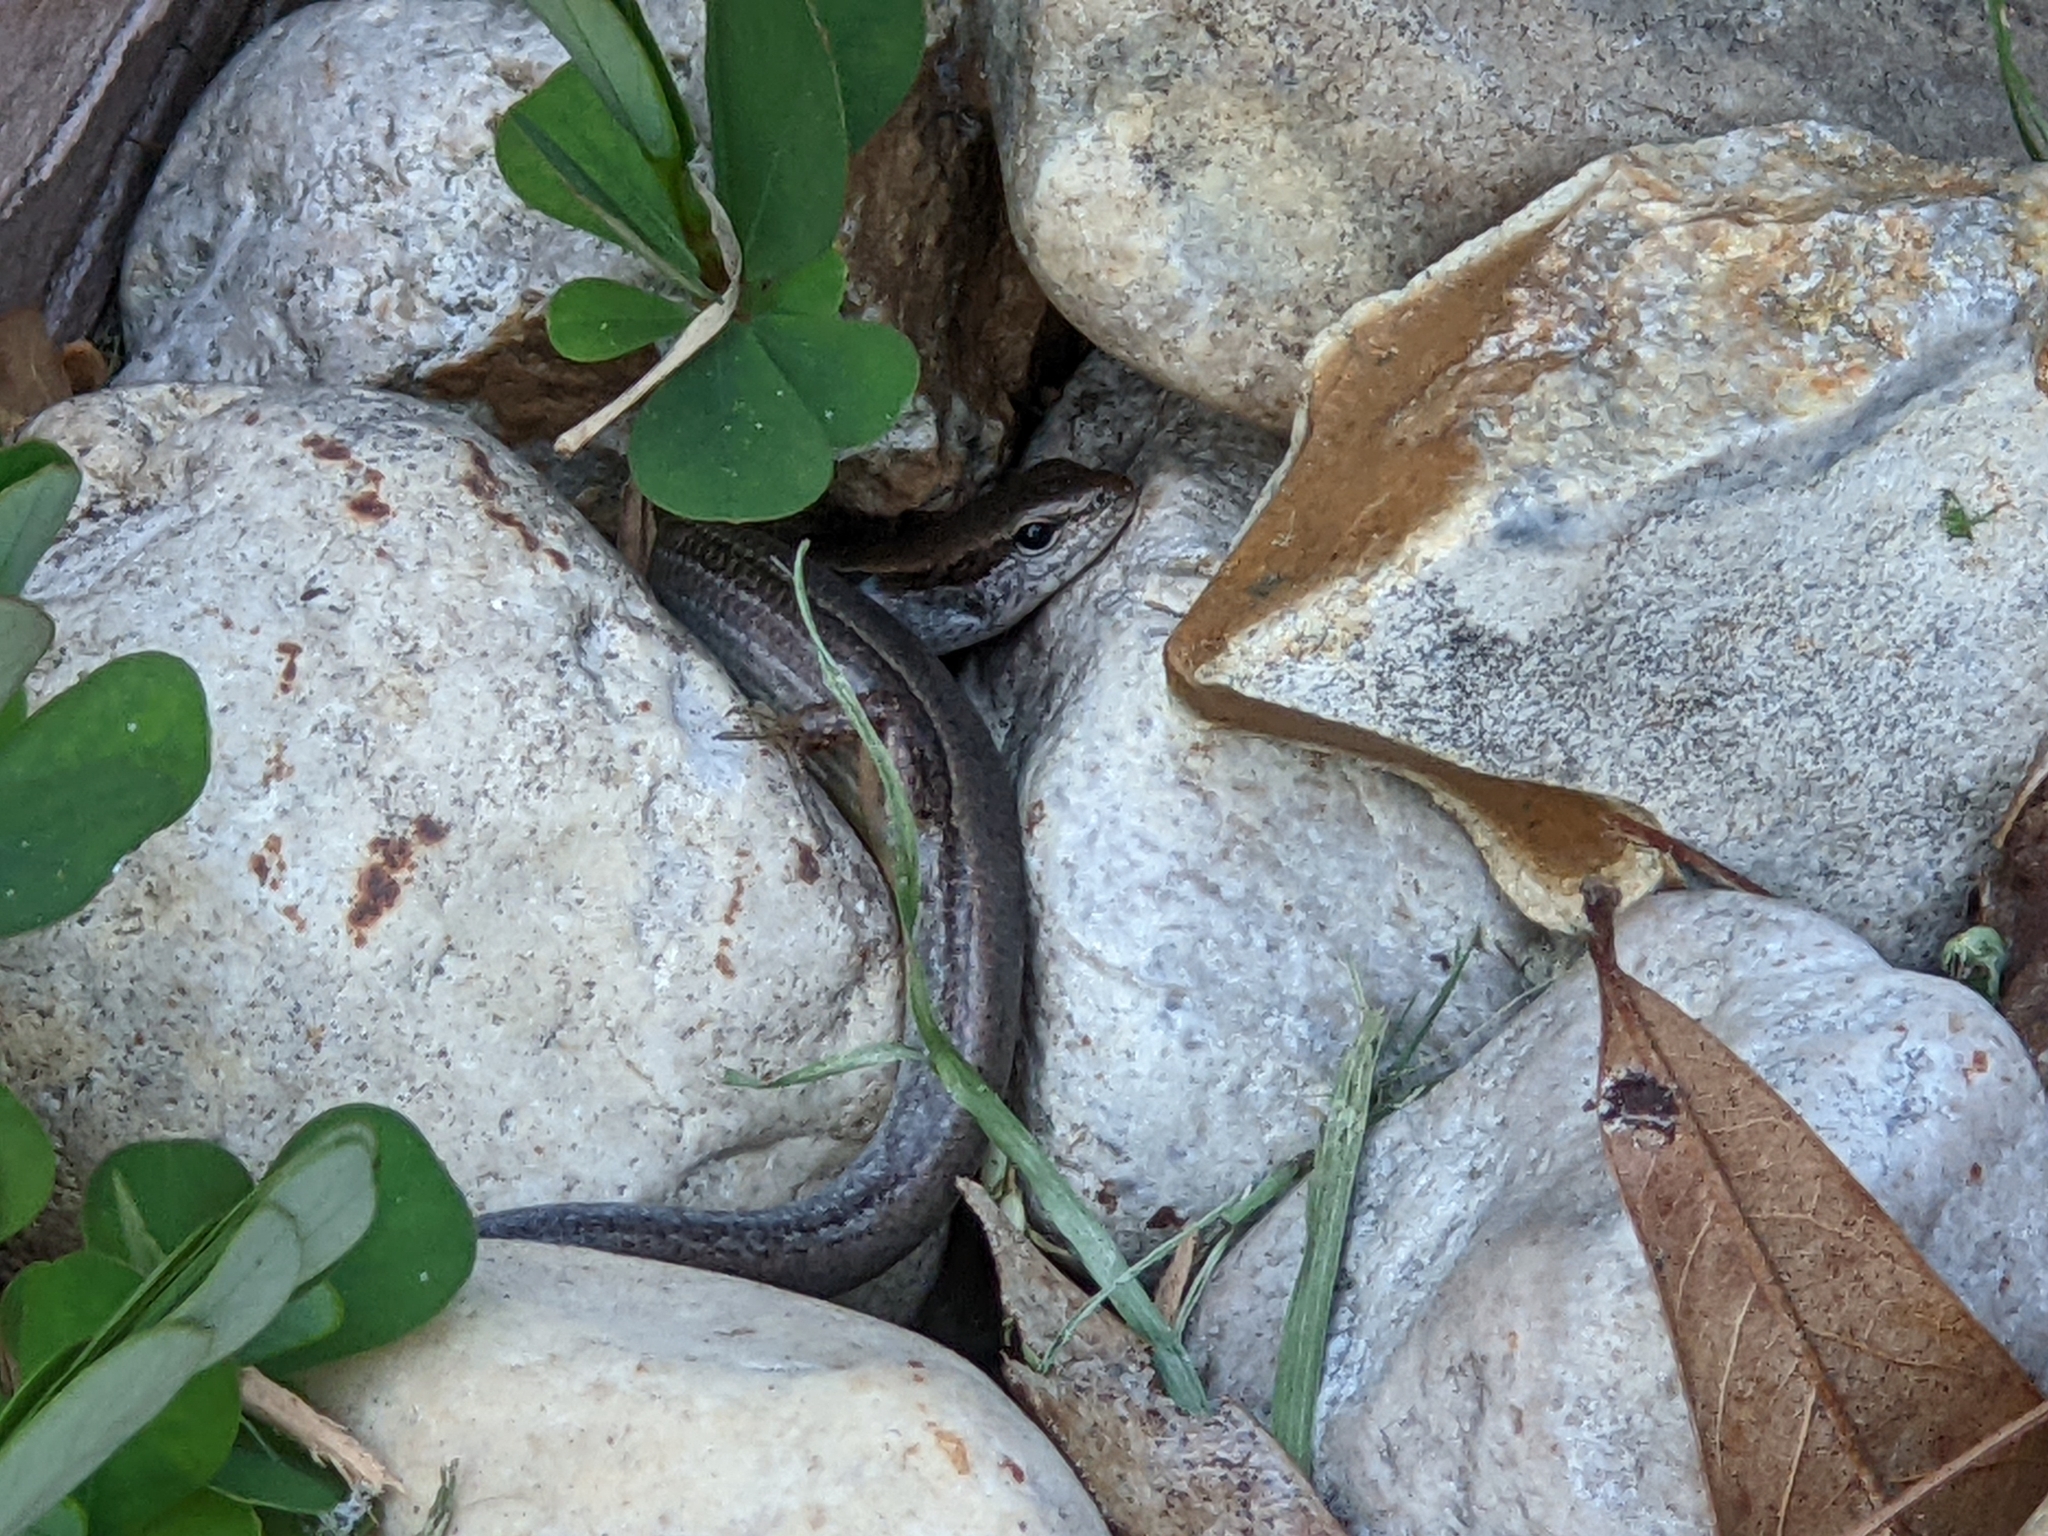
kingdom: Animalia
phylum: Chordata
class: Squamata
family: Scincidae
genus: Scincella
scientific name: Scincella lateralis
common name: Ground skink
